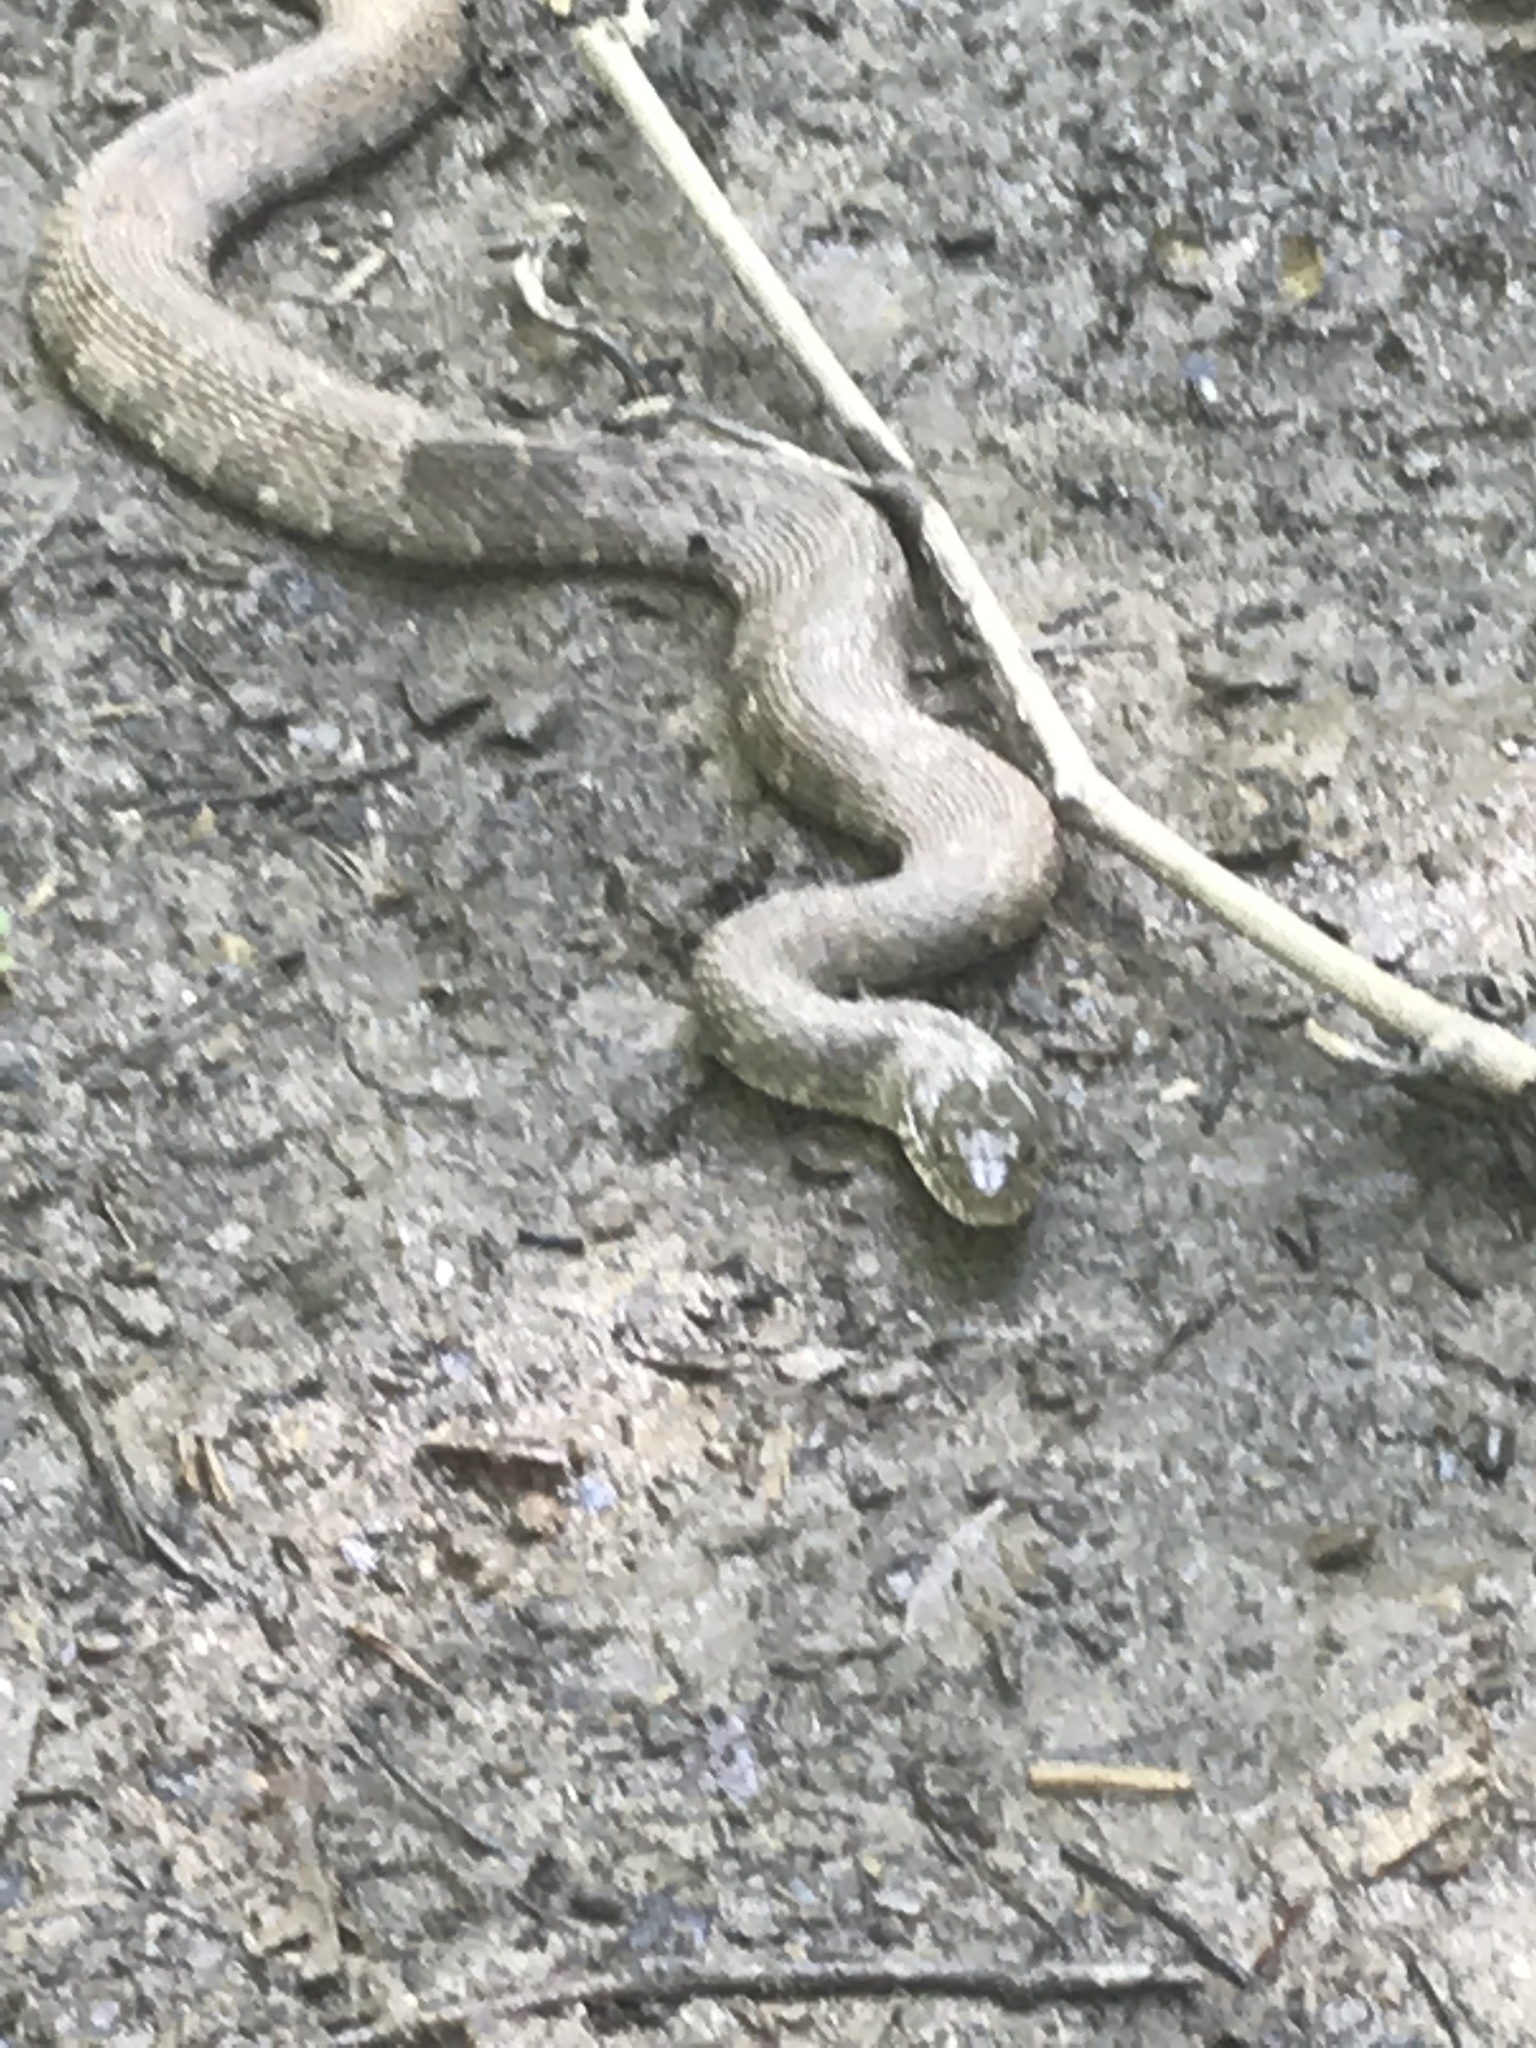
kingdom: Animalia
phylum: Chordata
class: Squamata
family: Colubridae
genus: Nerodia
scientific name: Nerodia sipedon
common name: Northern water snake
